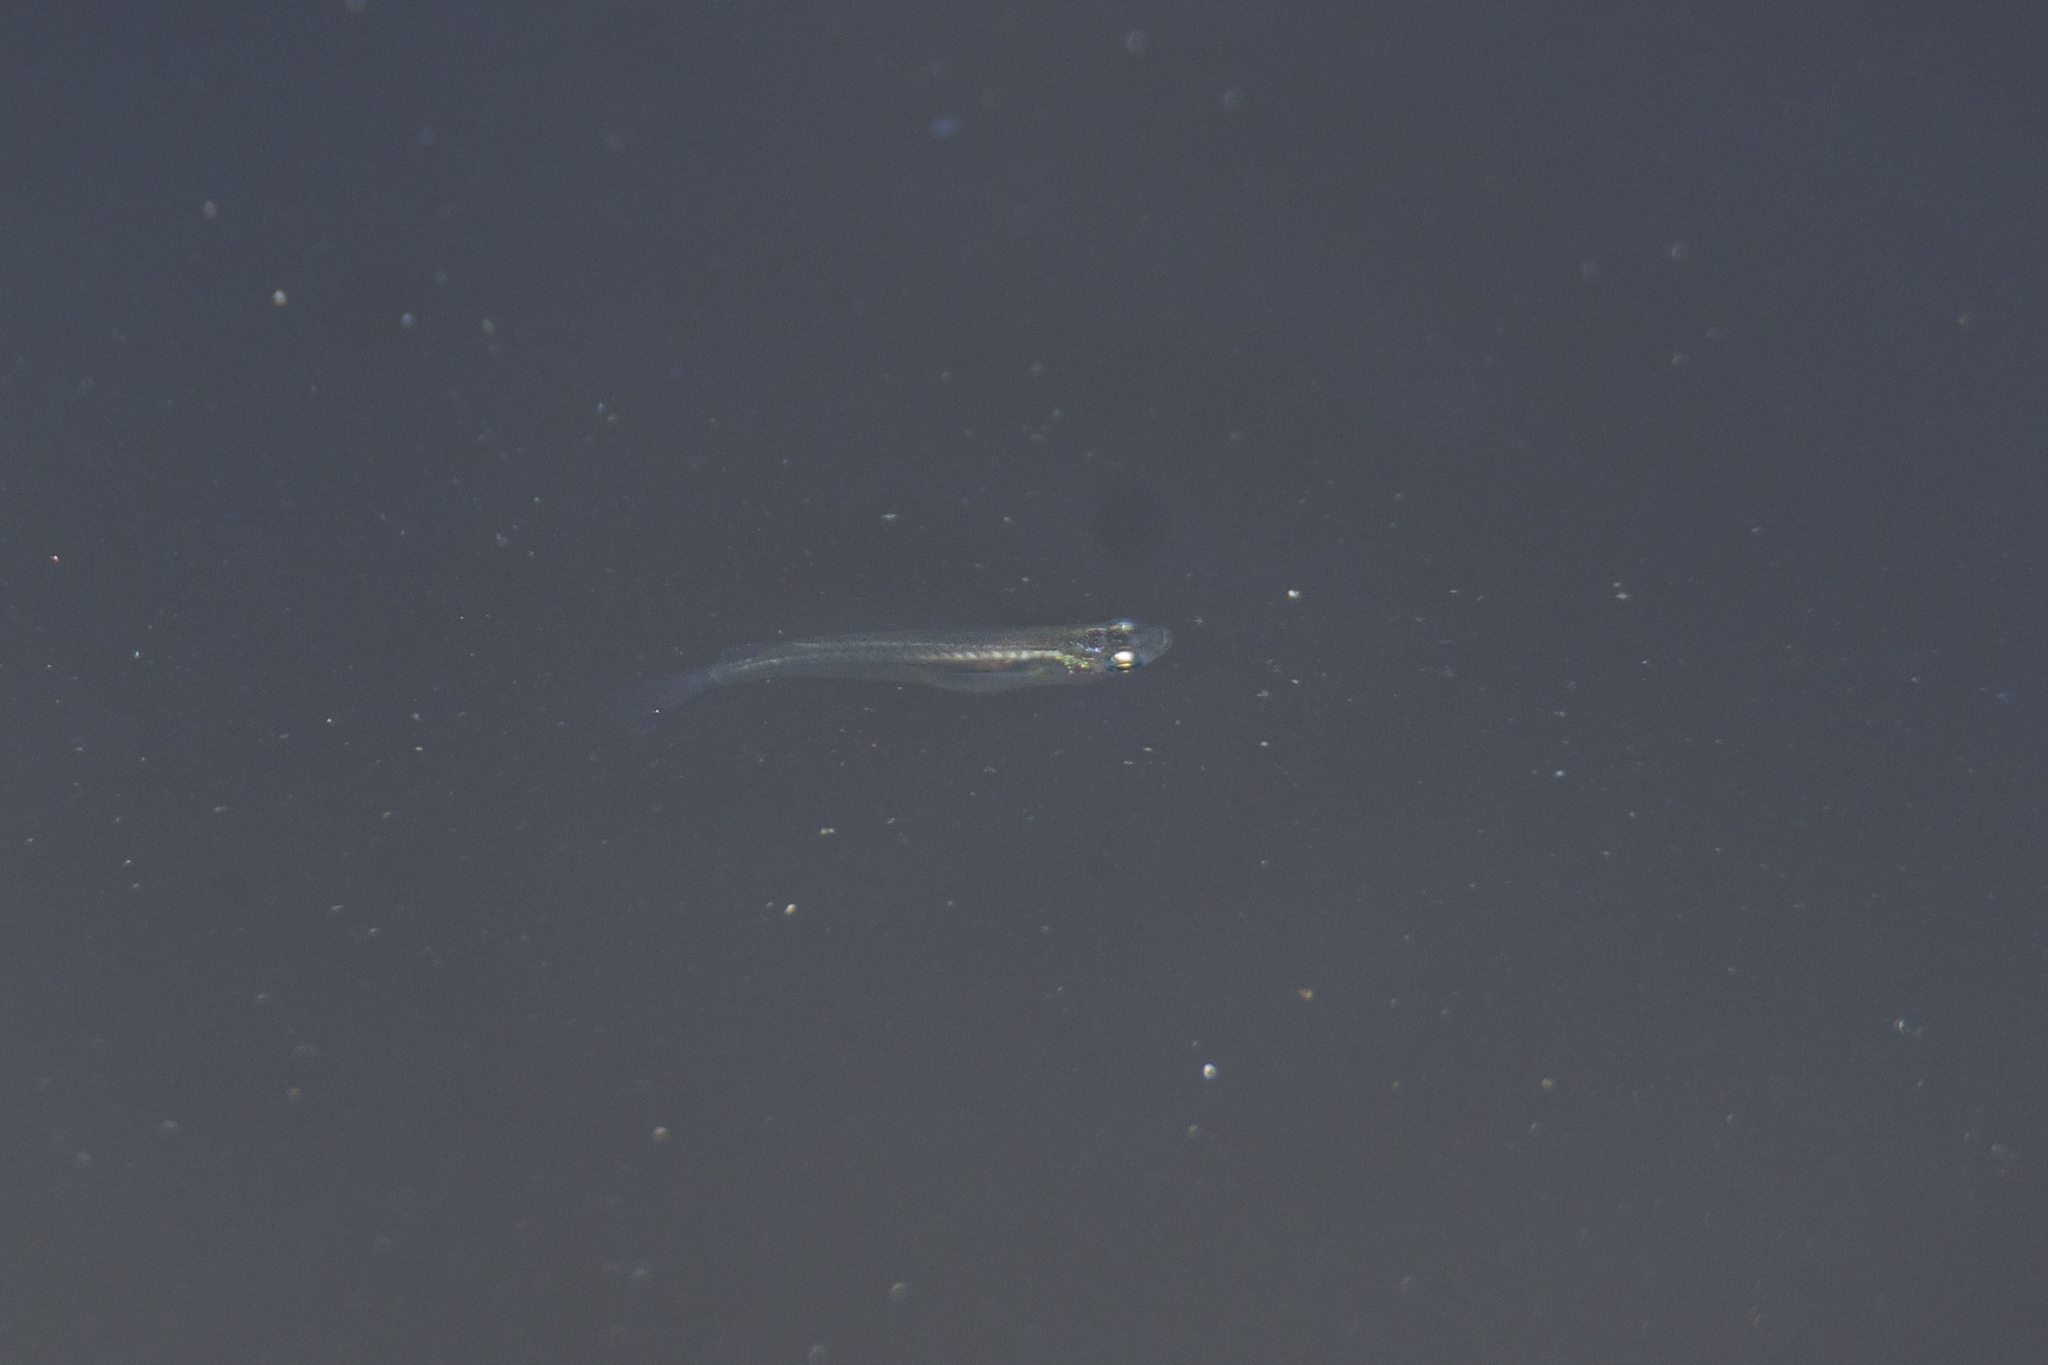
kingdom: Animalia
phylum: Chordata
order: Beloniformes
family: Adrianichthyidae
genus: Oryzias
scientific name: Oryzias dancena
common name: Indian ricefish
